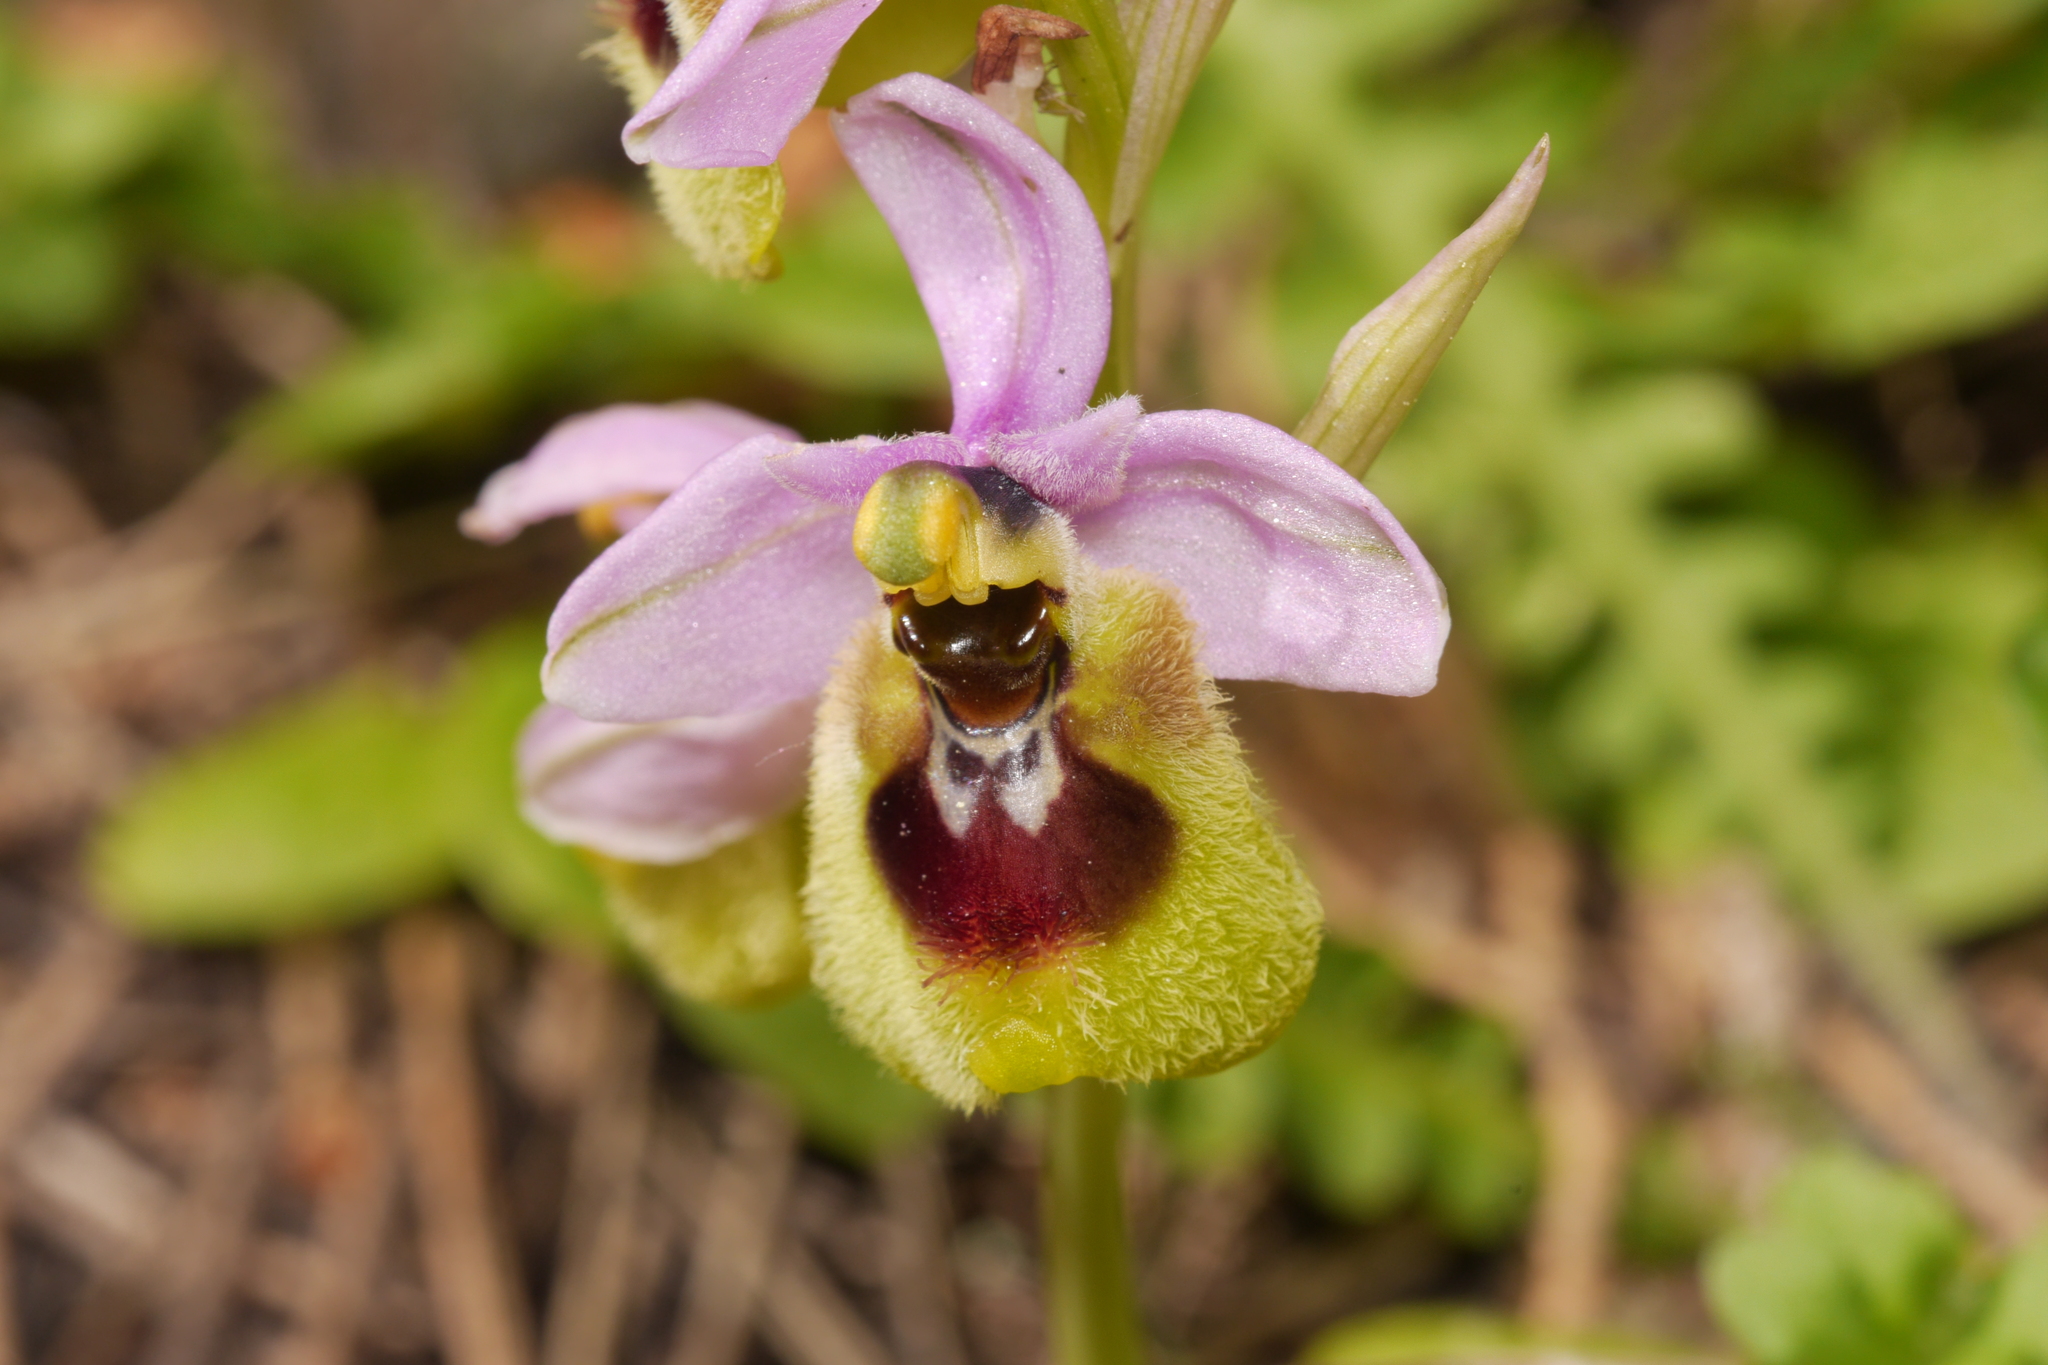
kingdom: Plantae
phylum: Tracheophyta
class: Liliopsida
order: Asparagales
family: Orchidaceae
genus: Ophrys
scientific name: Ophrys tenthredinifera
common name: Sawfly orchid
